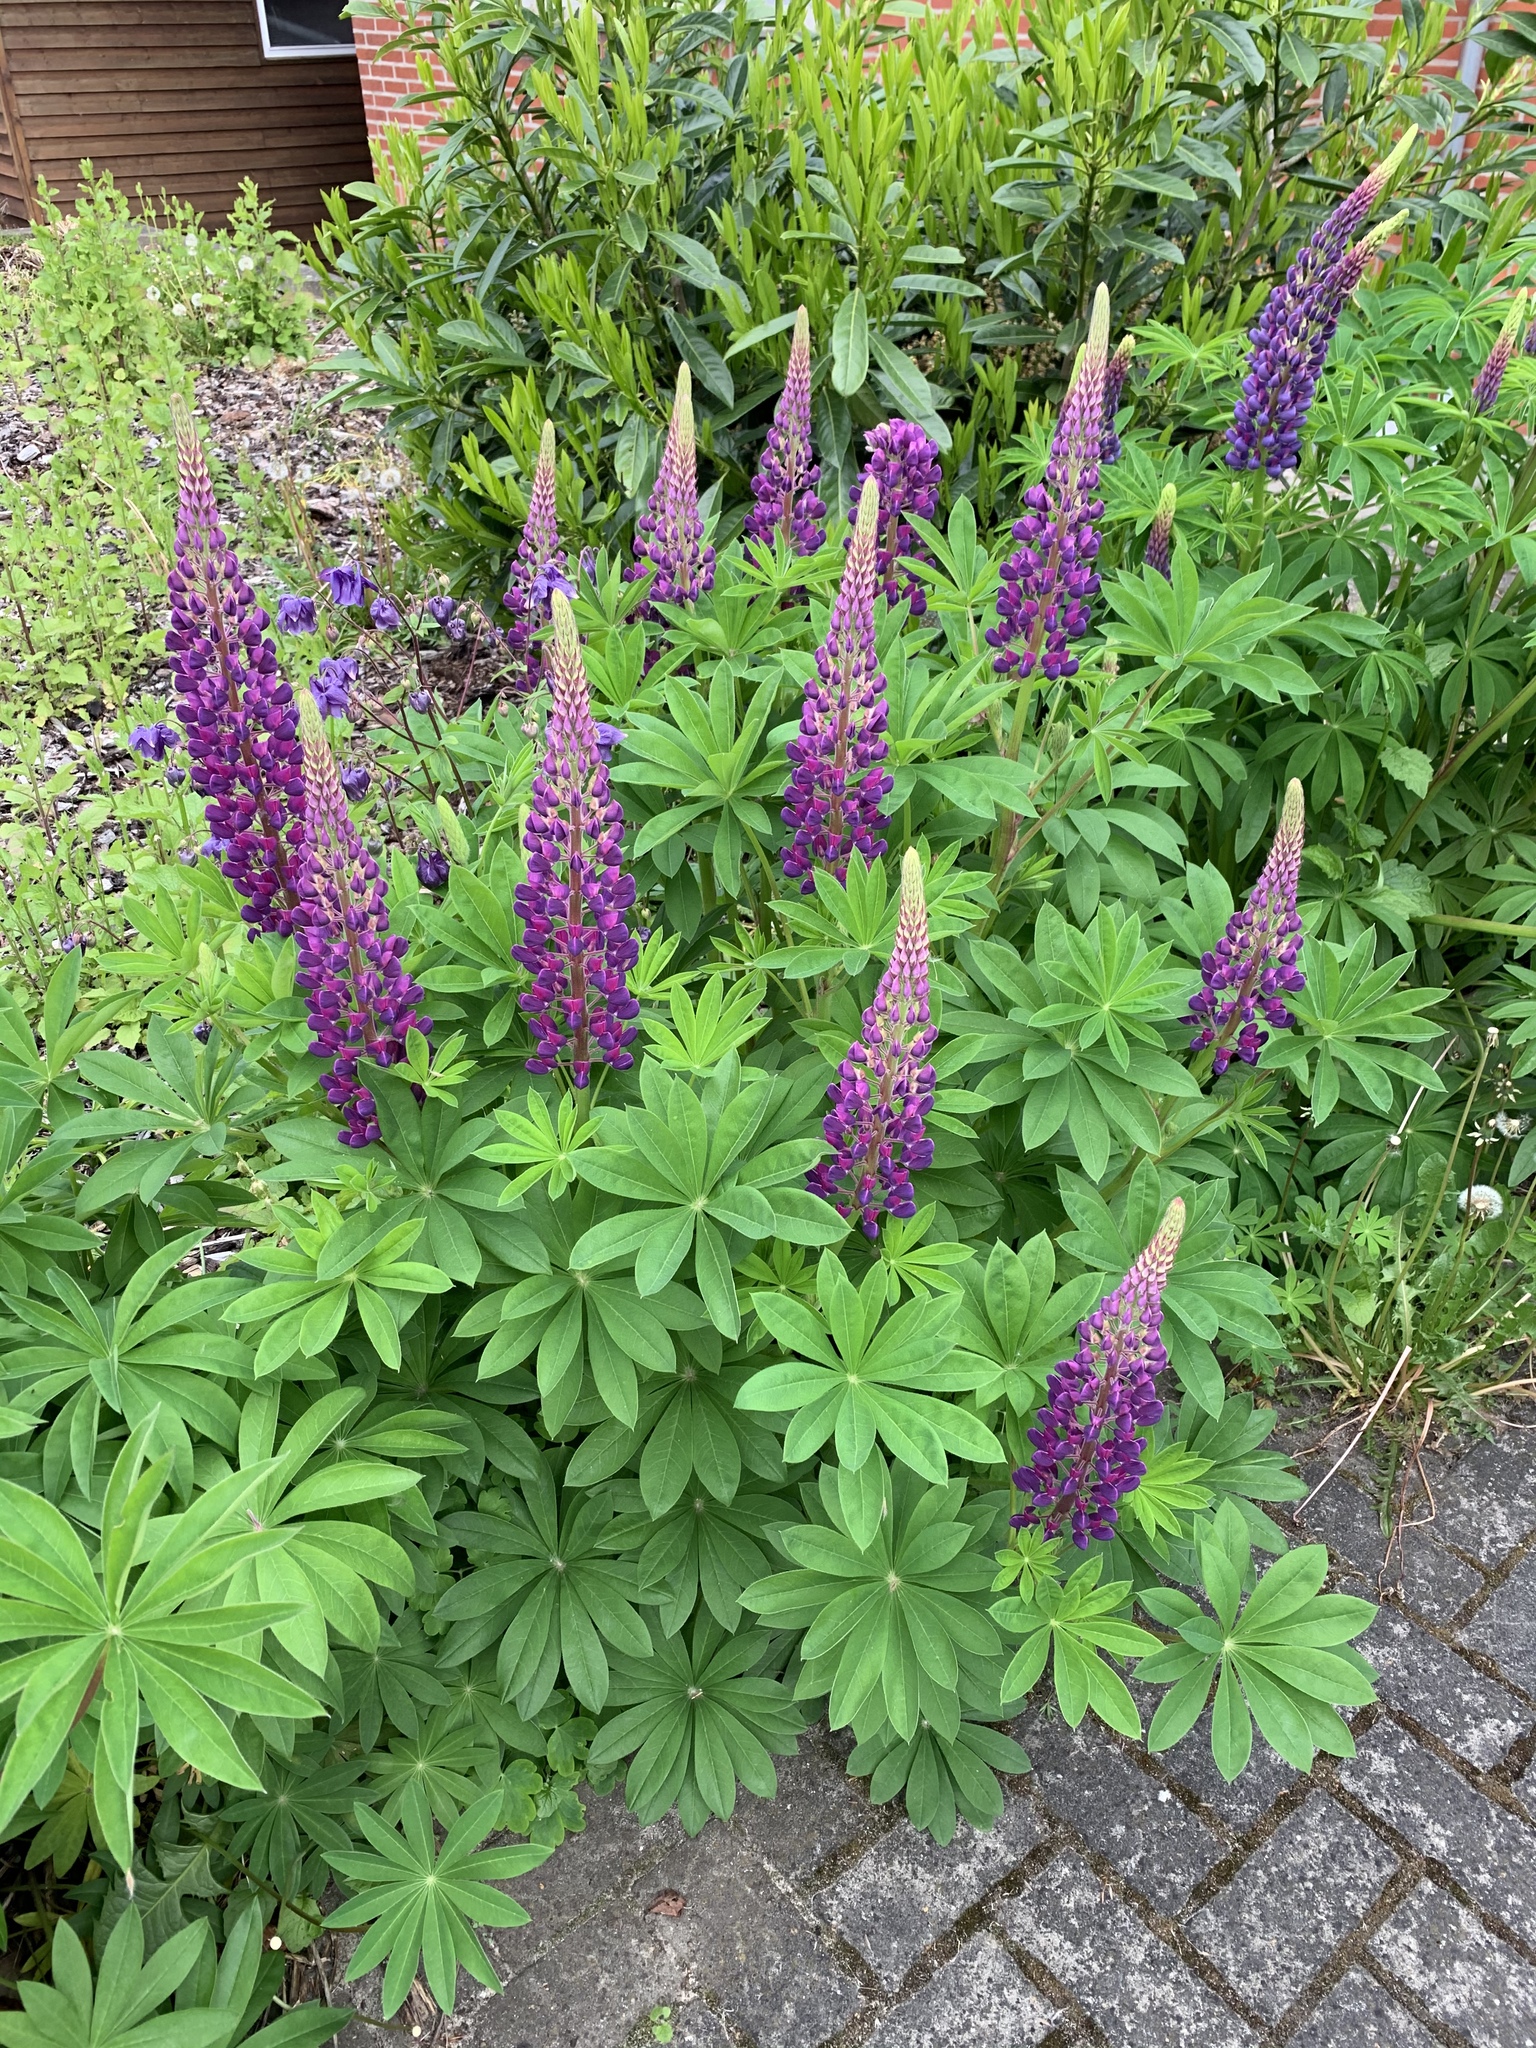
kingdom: Plantae
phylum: Tracheophyta
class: Magnoliopsida
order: Fabales
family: Fabaceae
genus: Lupinus
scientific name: Lupinus polyphyllus
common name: Garden lupin
